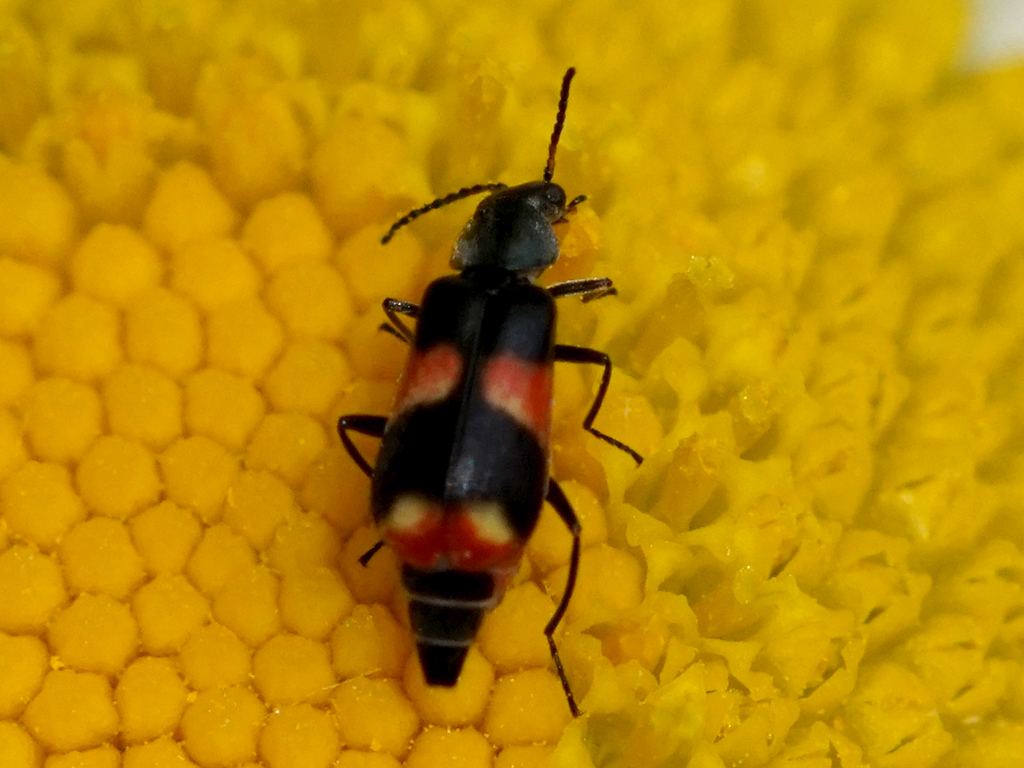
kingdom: Animalia
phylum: Arthropoda
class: Insecta
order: Coleoptera
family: Melyridae
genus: Anthocomus
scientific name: Anthocomus fasciatus
